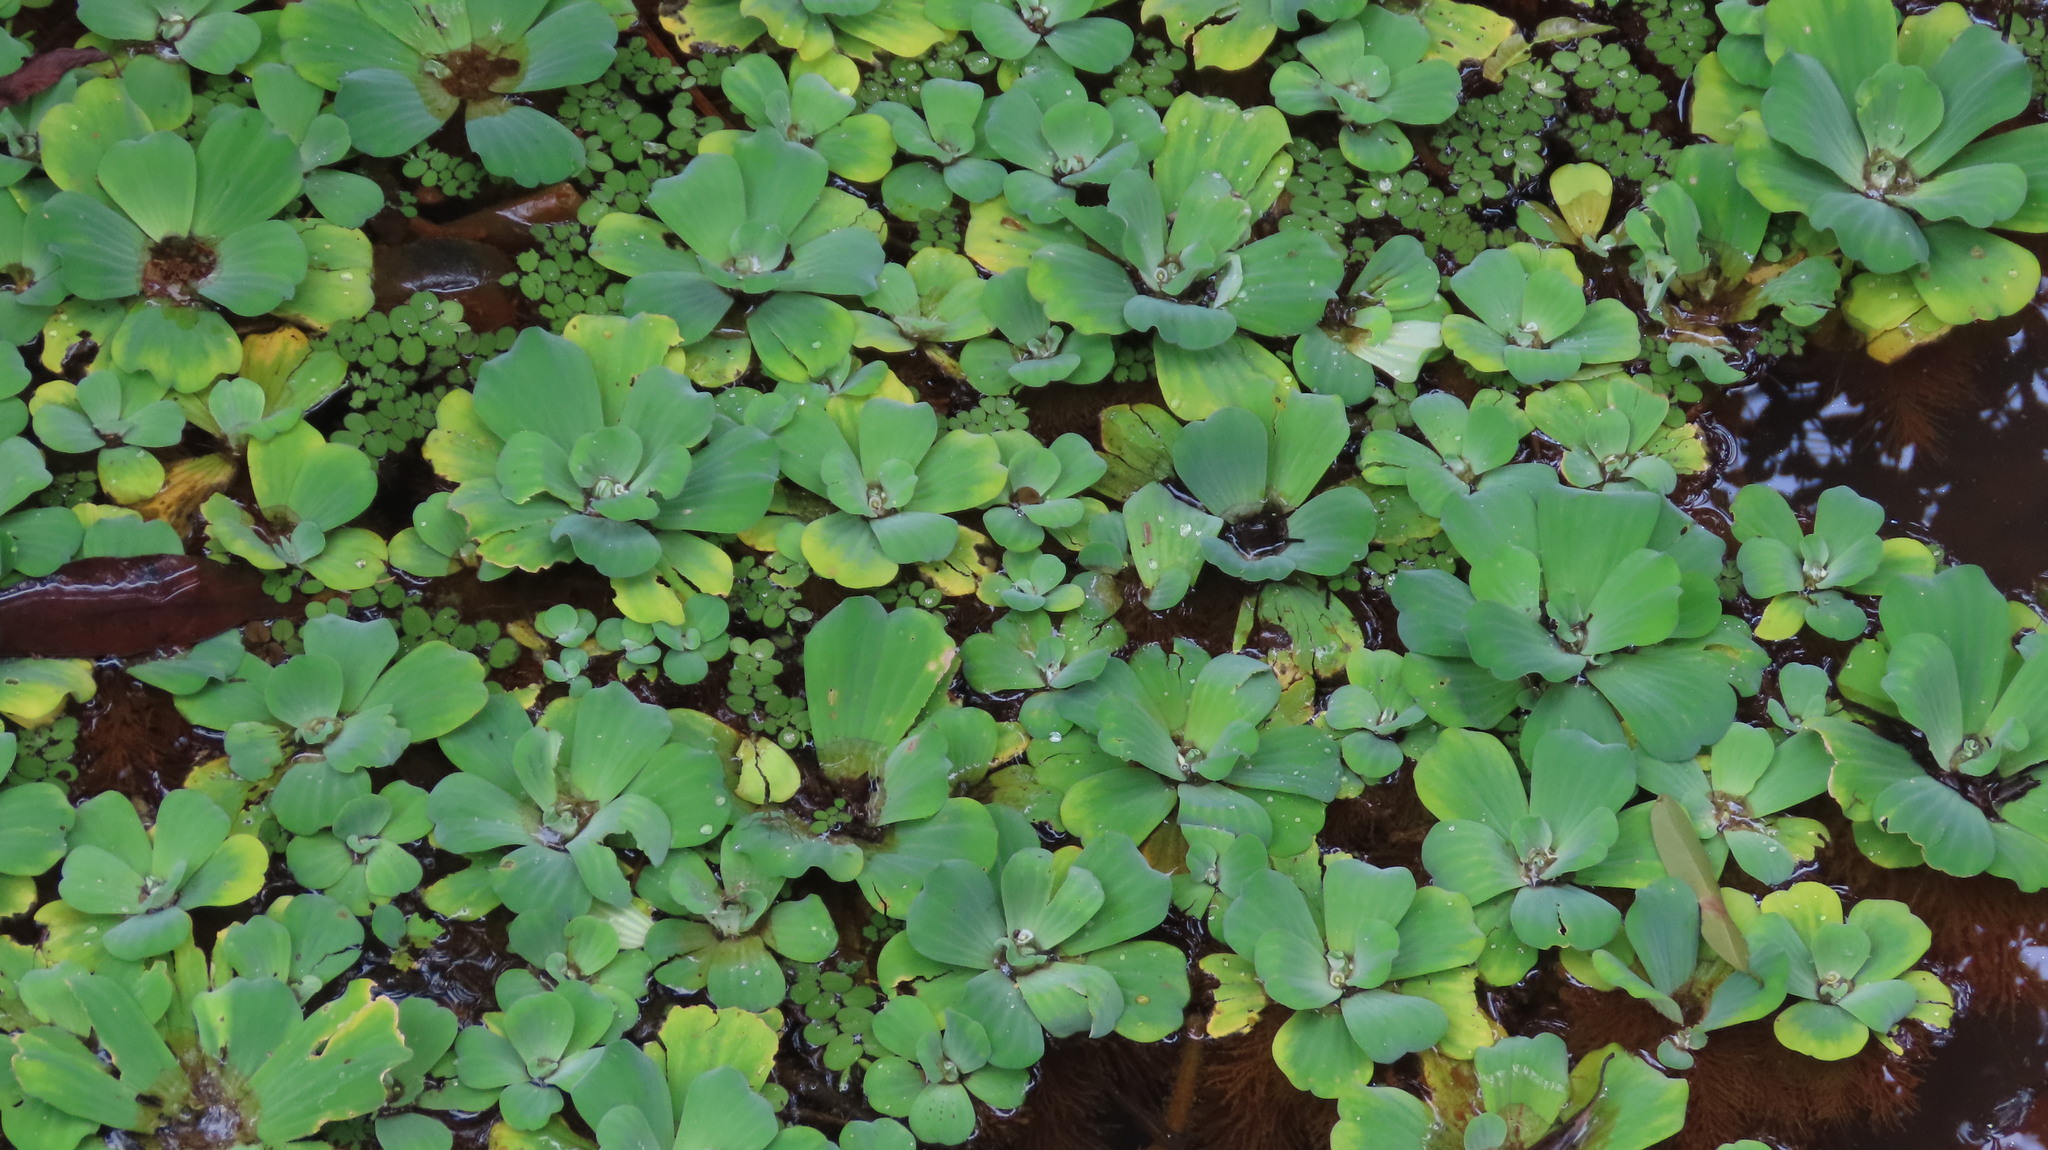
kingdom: Plantae
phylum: Tracheophyta
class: Liliopsida
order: Alismatales
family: Araceae
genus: Pistia
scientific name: Pistia stratiotes
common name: Water lettuce
